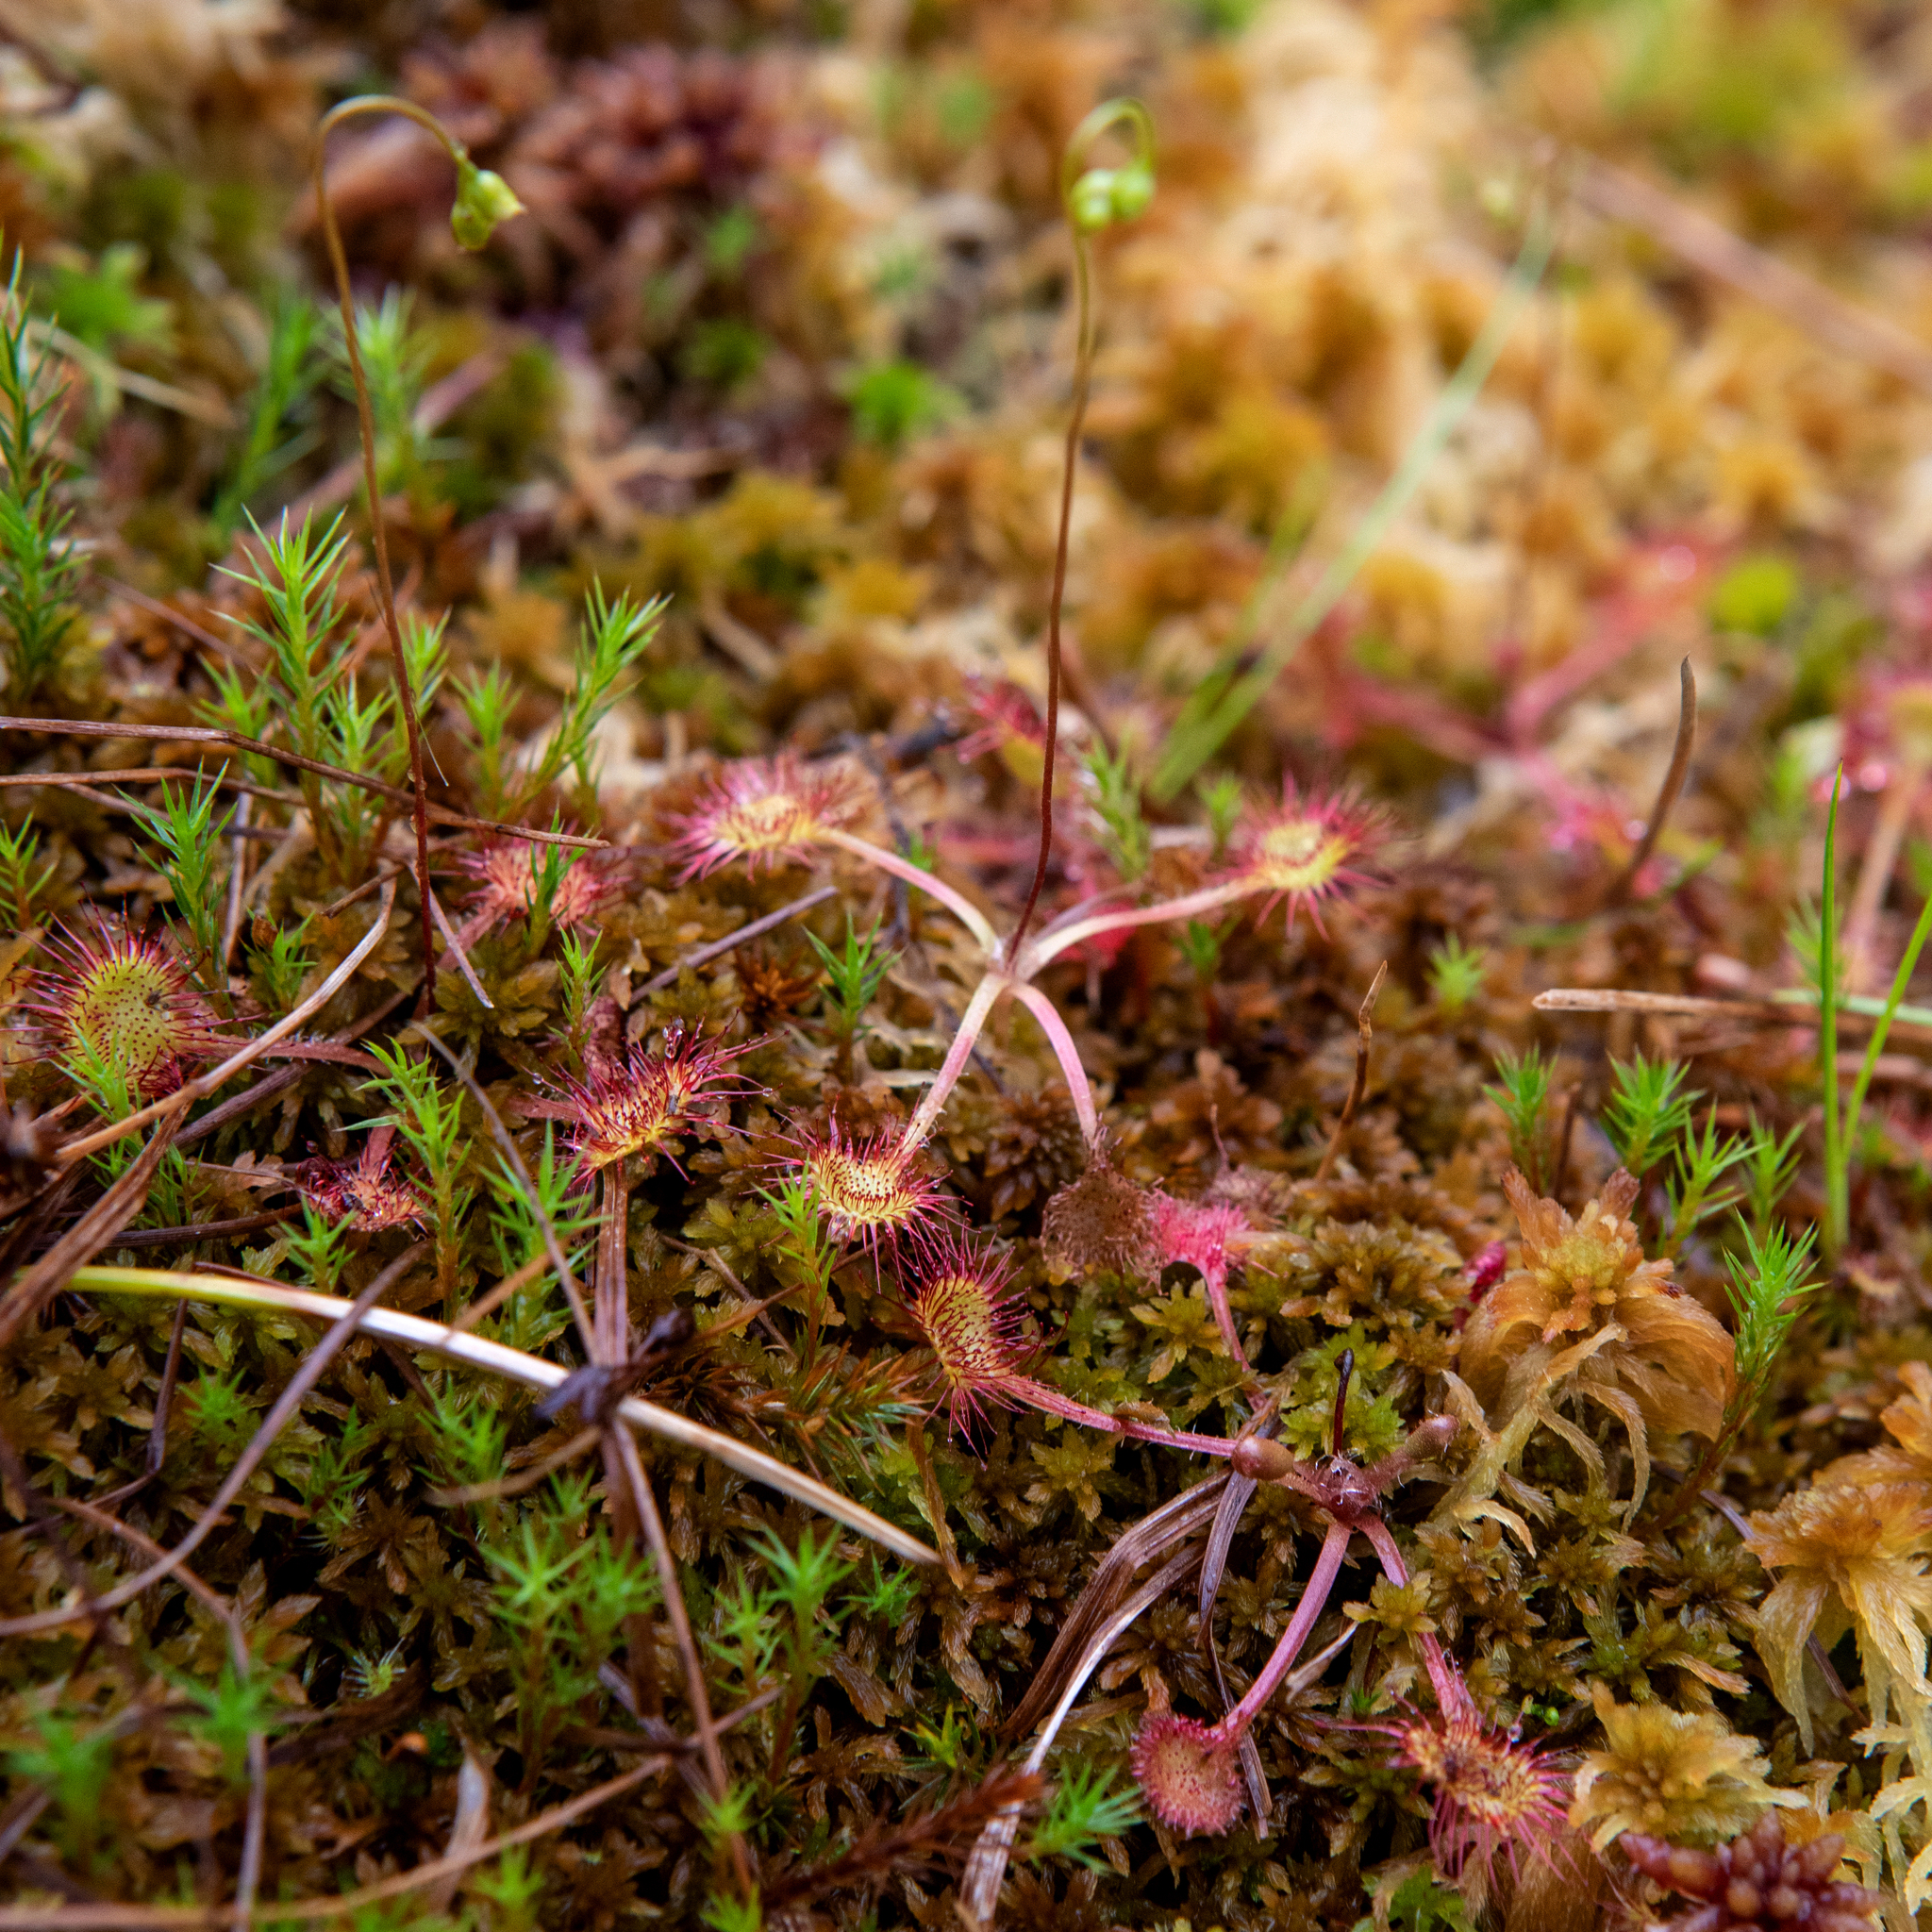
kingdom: Plantae
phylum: Tracheophyta
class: Magnoliopsida
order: Caryophyllales
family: Droseraceae
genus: Drosera
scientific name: Drosera rotundifolia
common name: Round-leaved sundew
